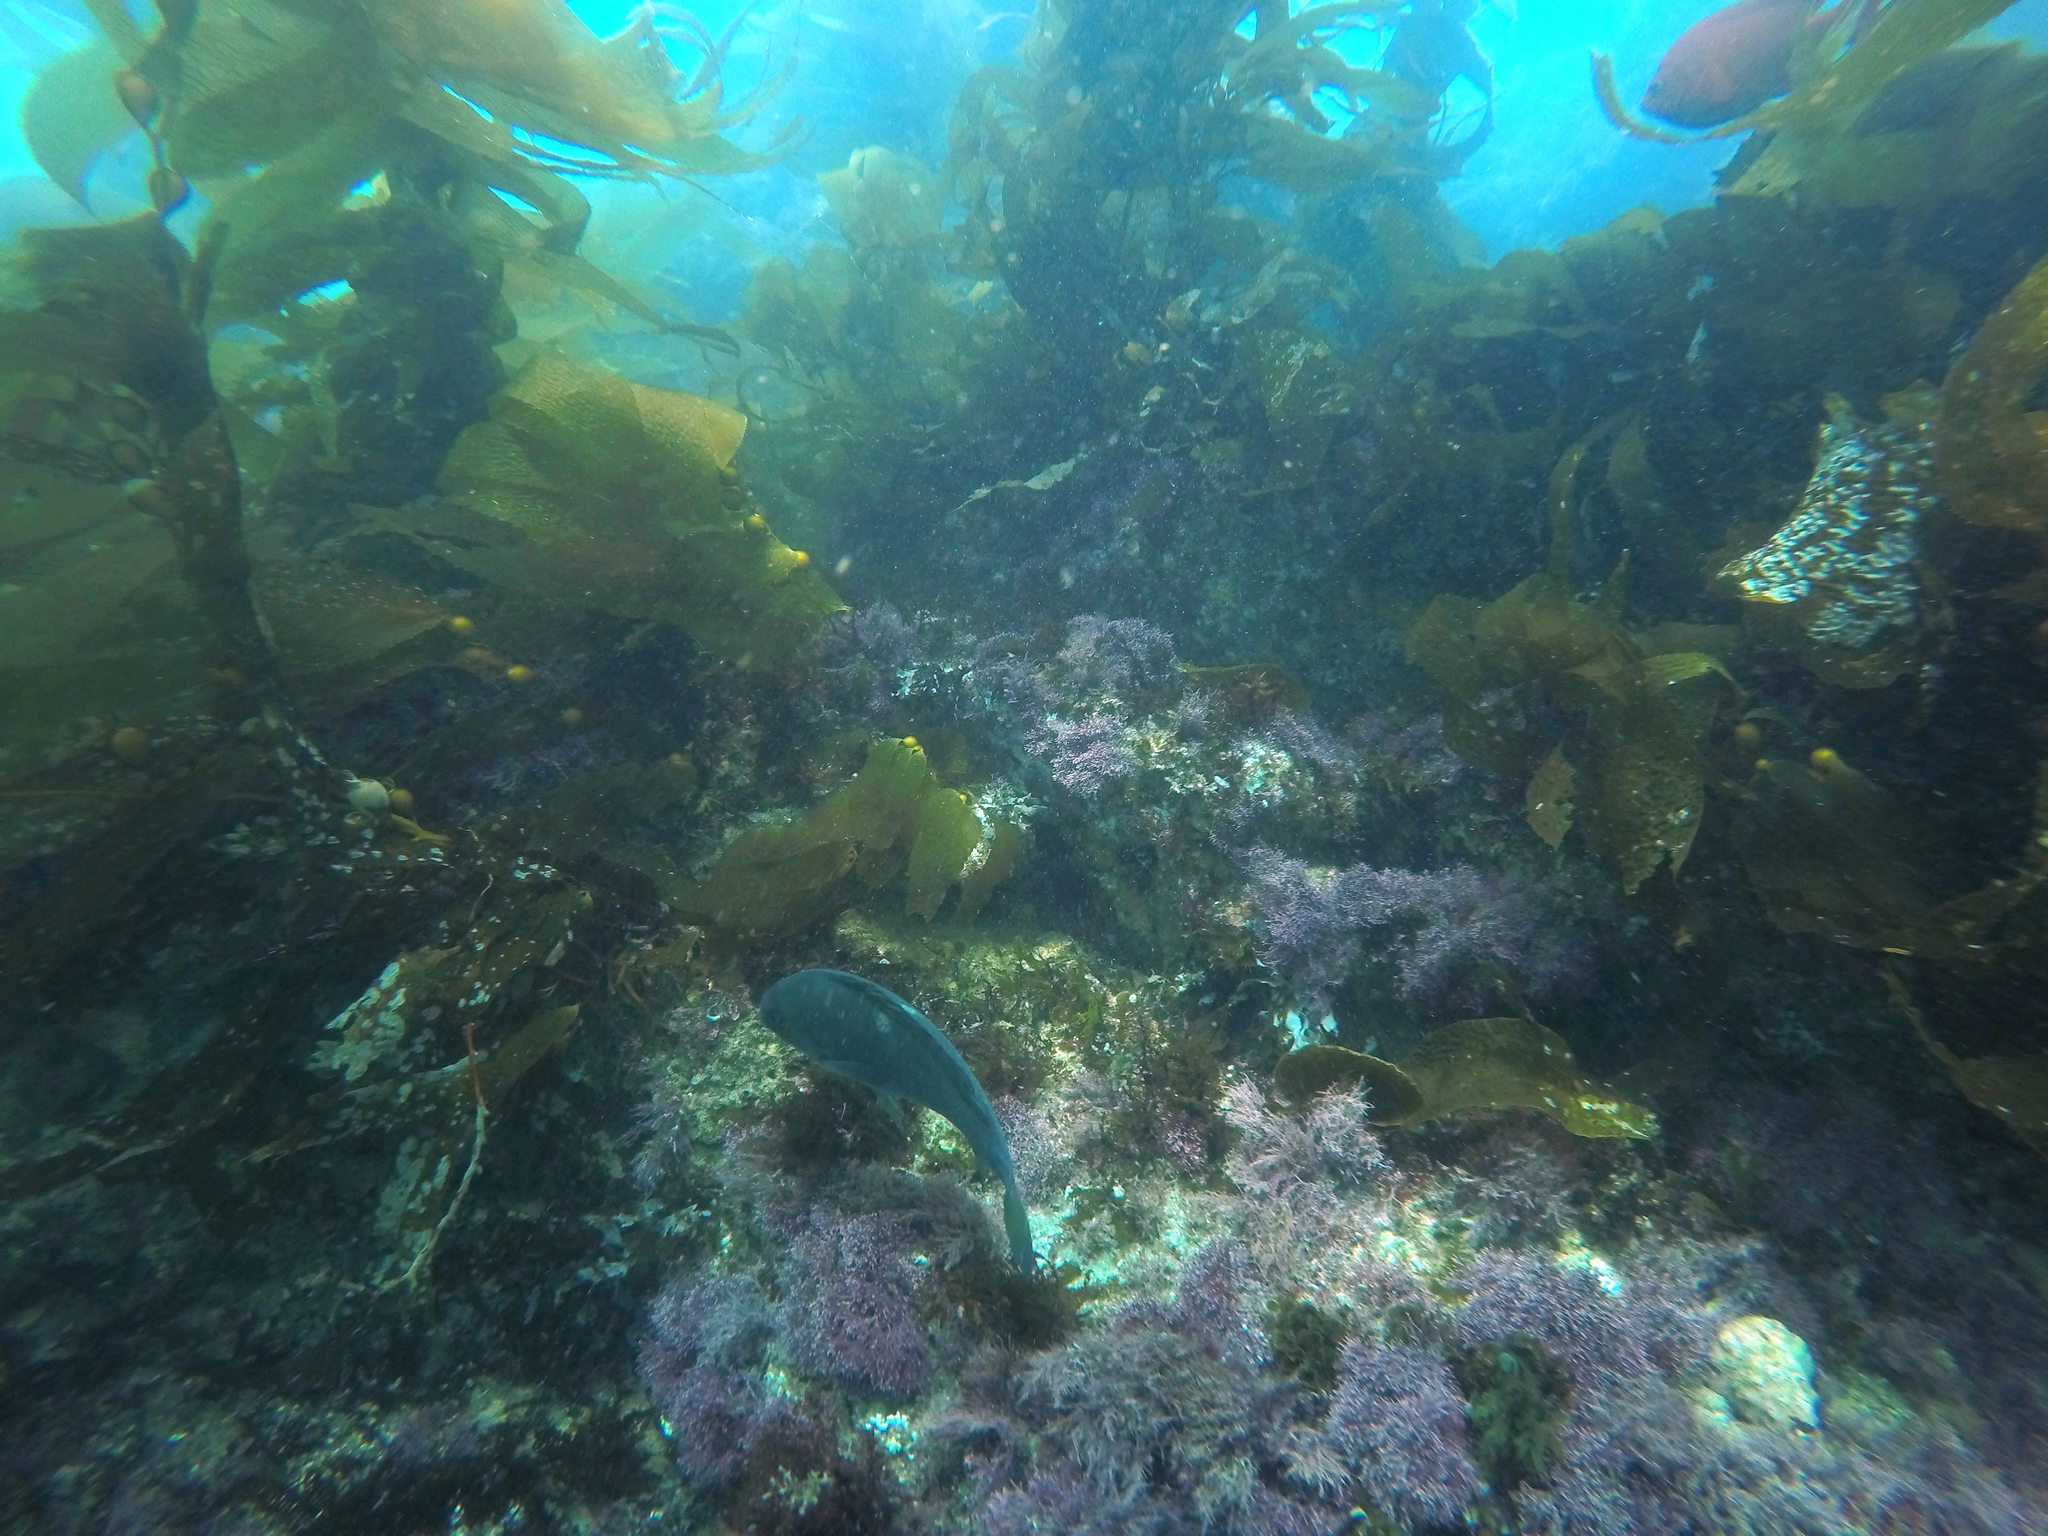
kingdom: Animalia
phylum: Chordata
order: Perciformes
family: Kyphosidae
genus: Girella
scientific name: Girella nigricans
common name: Opaleye
